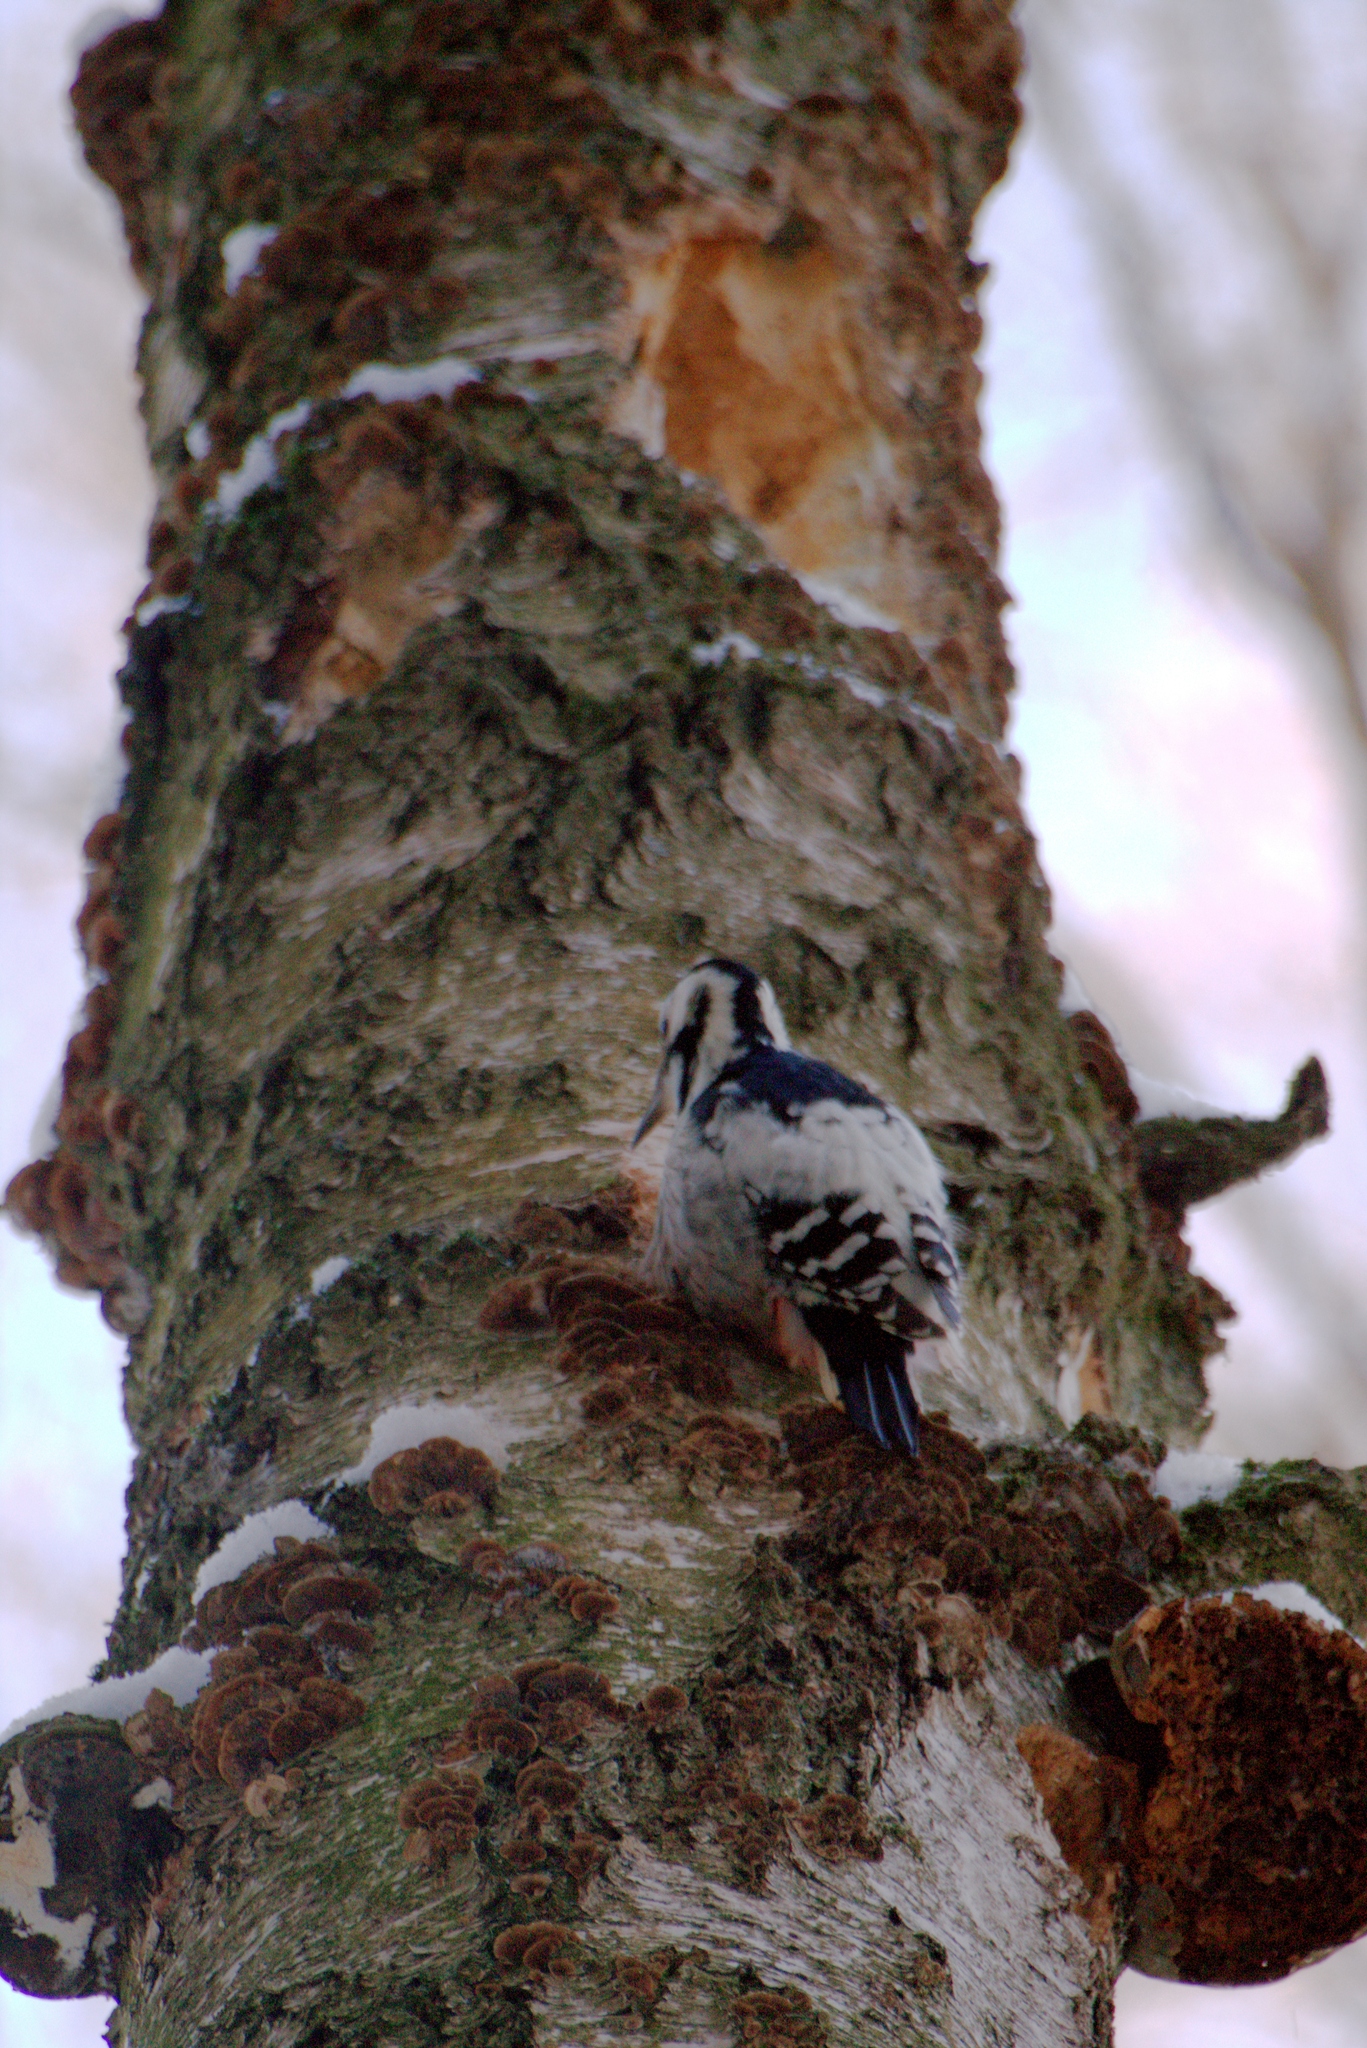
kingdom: Animalia
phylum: Chordata
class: Aves
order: Piciformes
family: Picidae
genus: Dendrocopos
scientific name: Dendrocopos leucotos
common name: White-backed woodpecker
